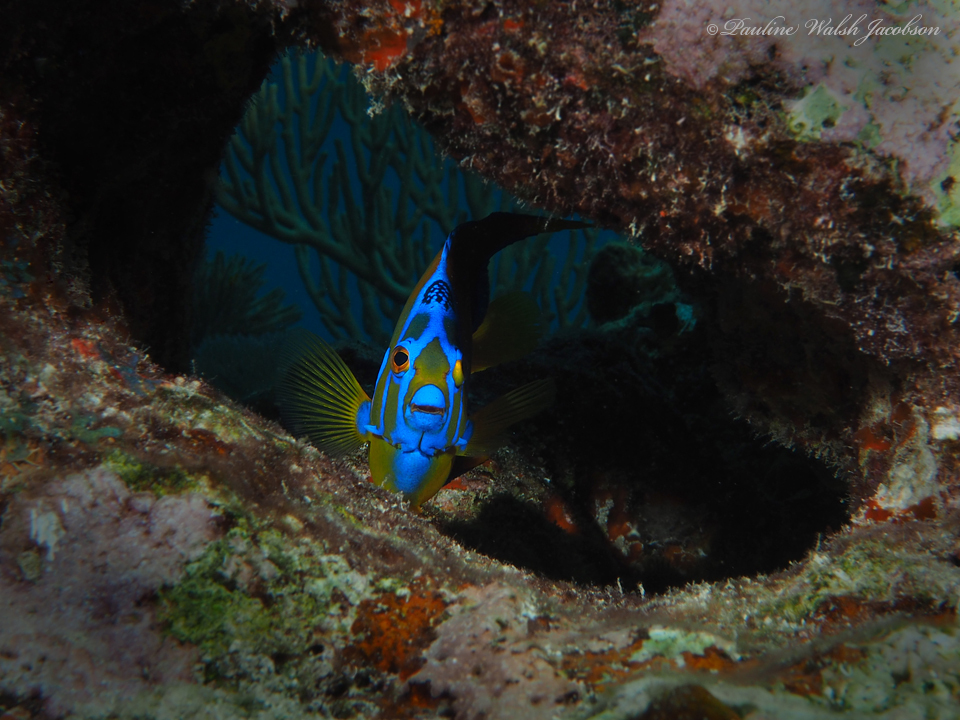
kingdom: Animalia
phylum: Chordata
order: Perciformes
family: Pomacanthidae
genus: Holacanthus
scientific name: Holacanthus ciliaris
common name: Queen angelfish
